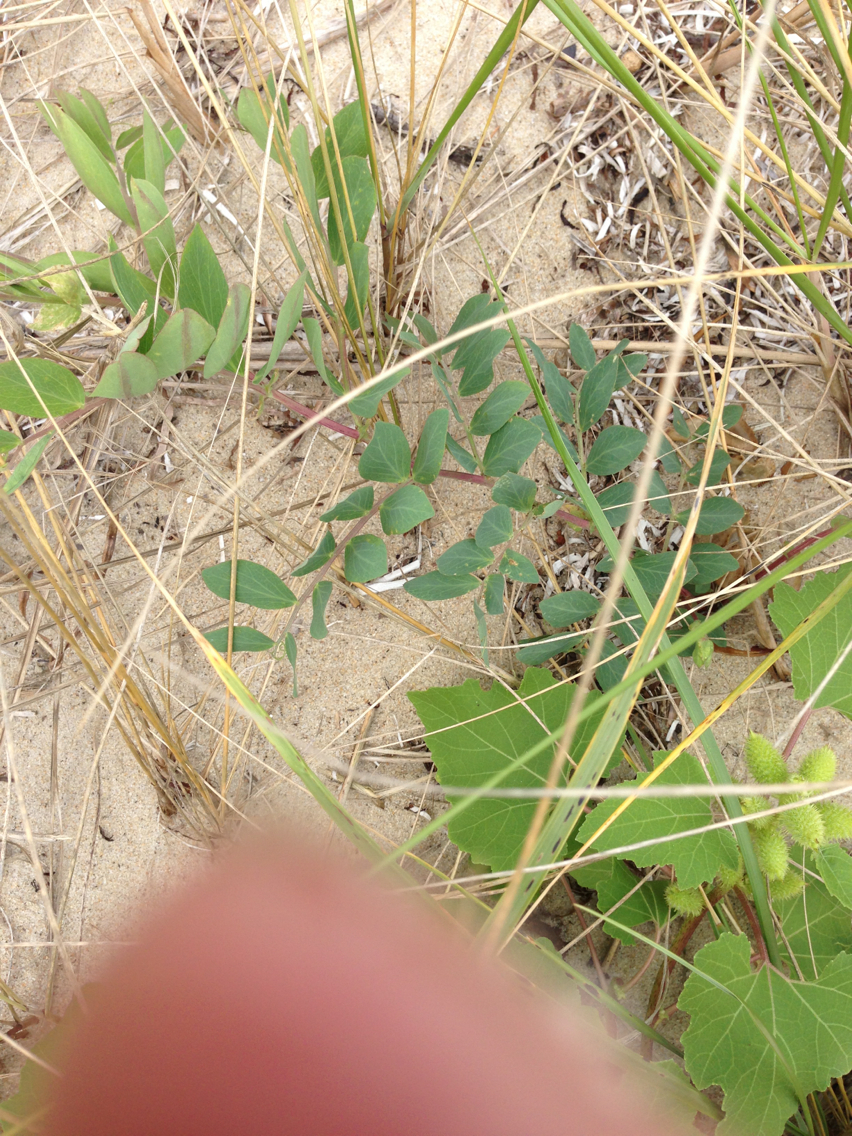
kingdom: Plantae
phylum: Tracheophyta
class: Magnoliopsida
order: Fabales
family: Fabaceae
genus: Lathyrus
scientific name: Lathyrus japonicus
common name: Sea pea
